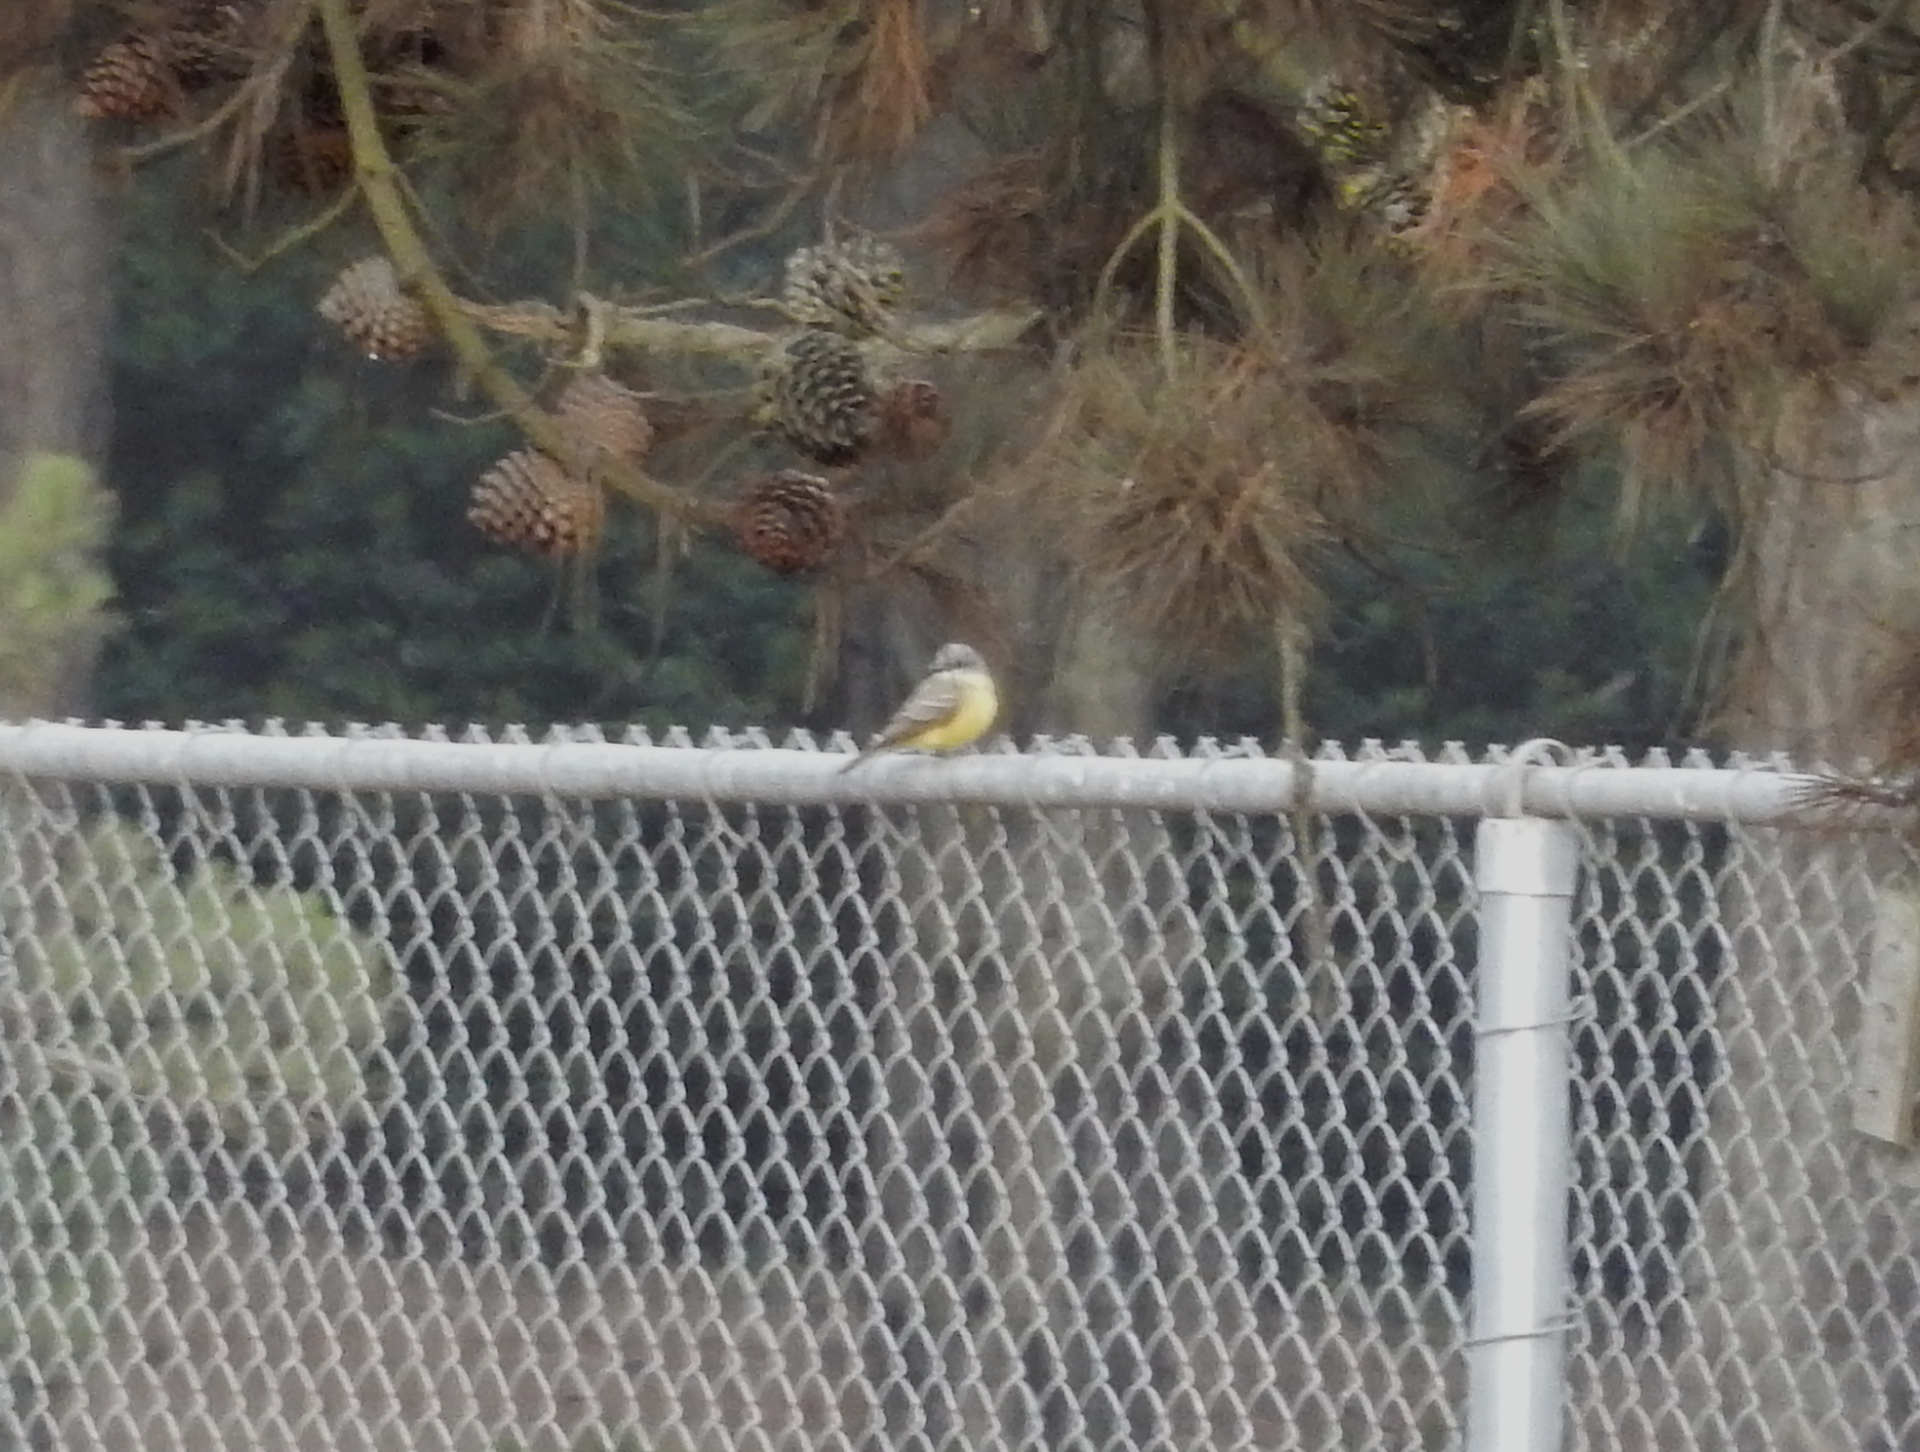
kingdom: Animalia
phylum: Chordata
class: Aves
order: Passeriformes
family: Tyrannidae
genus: Tyrannus
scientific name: Tyrannus melancholicus
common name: Tropical kingbird
